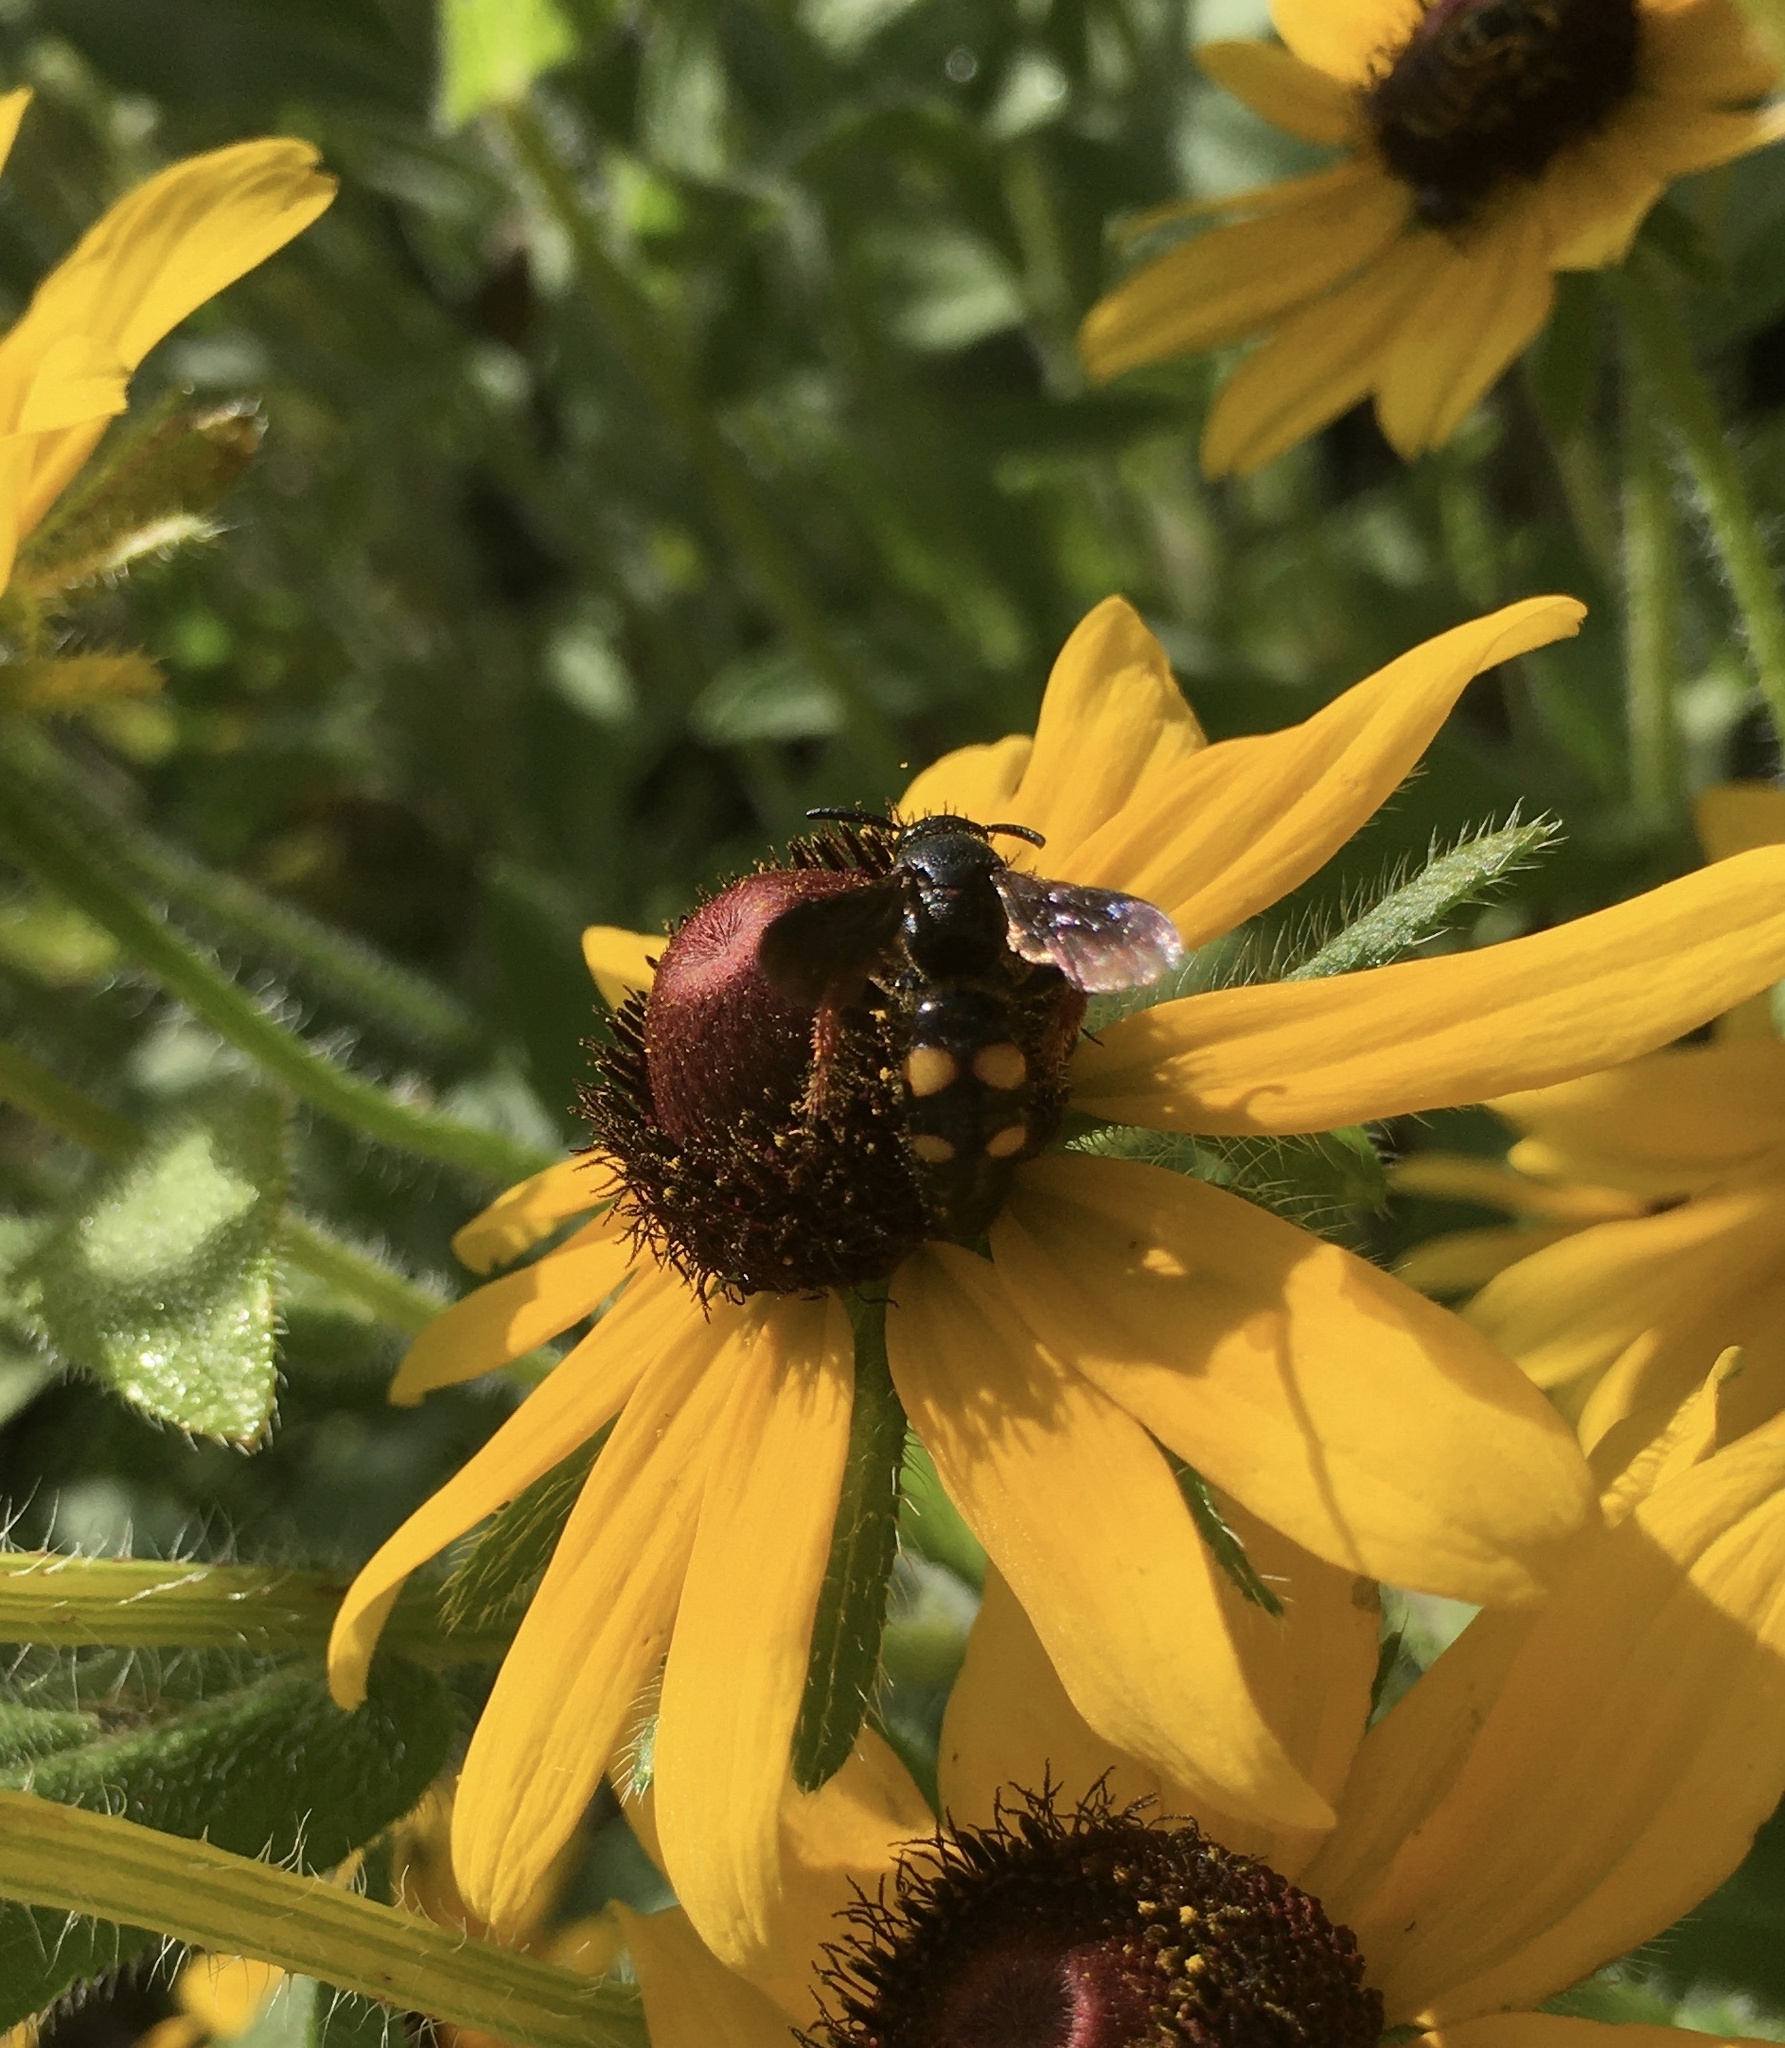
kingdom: Animalia
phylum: Arthropoda
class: Insecta
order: Hymenoptera
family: Scoliidae
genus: Scolia
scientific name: Scolia nobilitata
